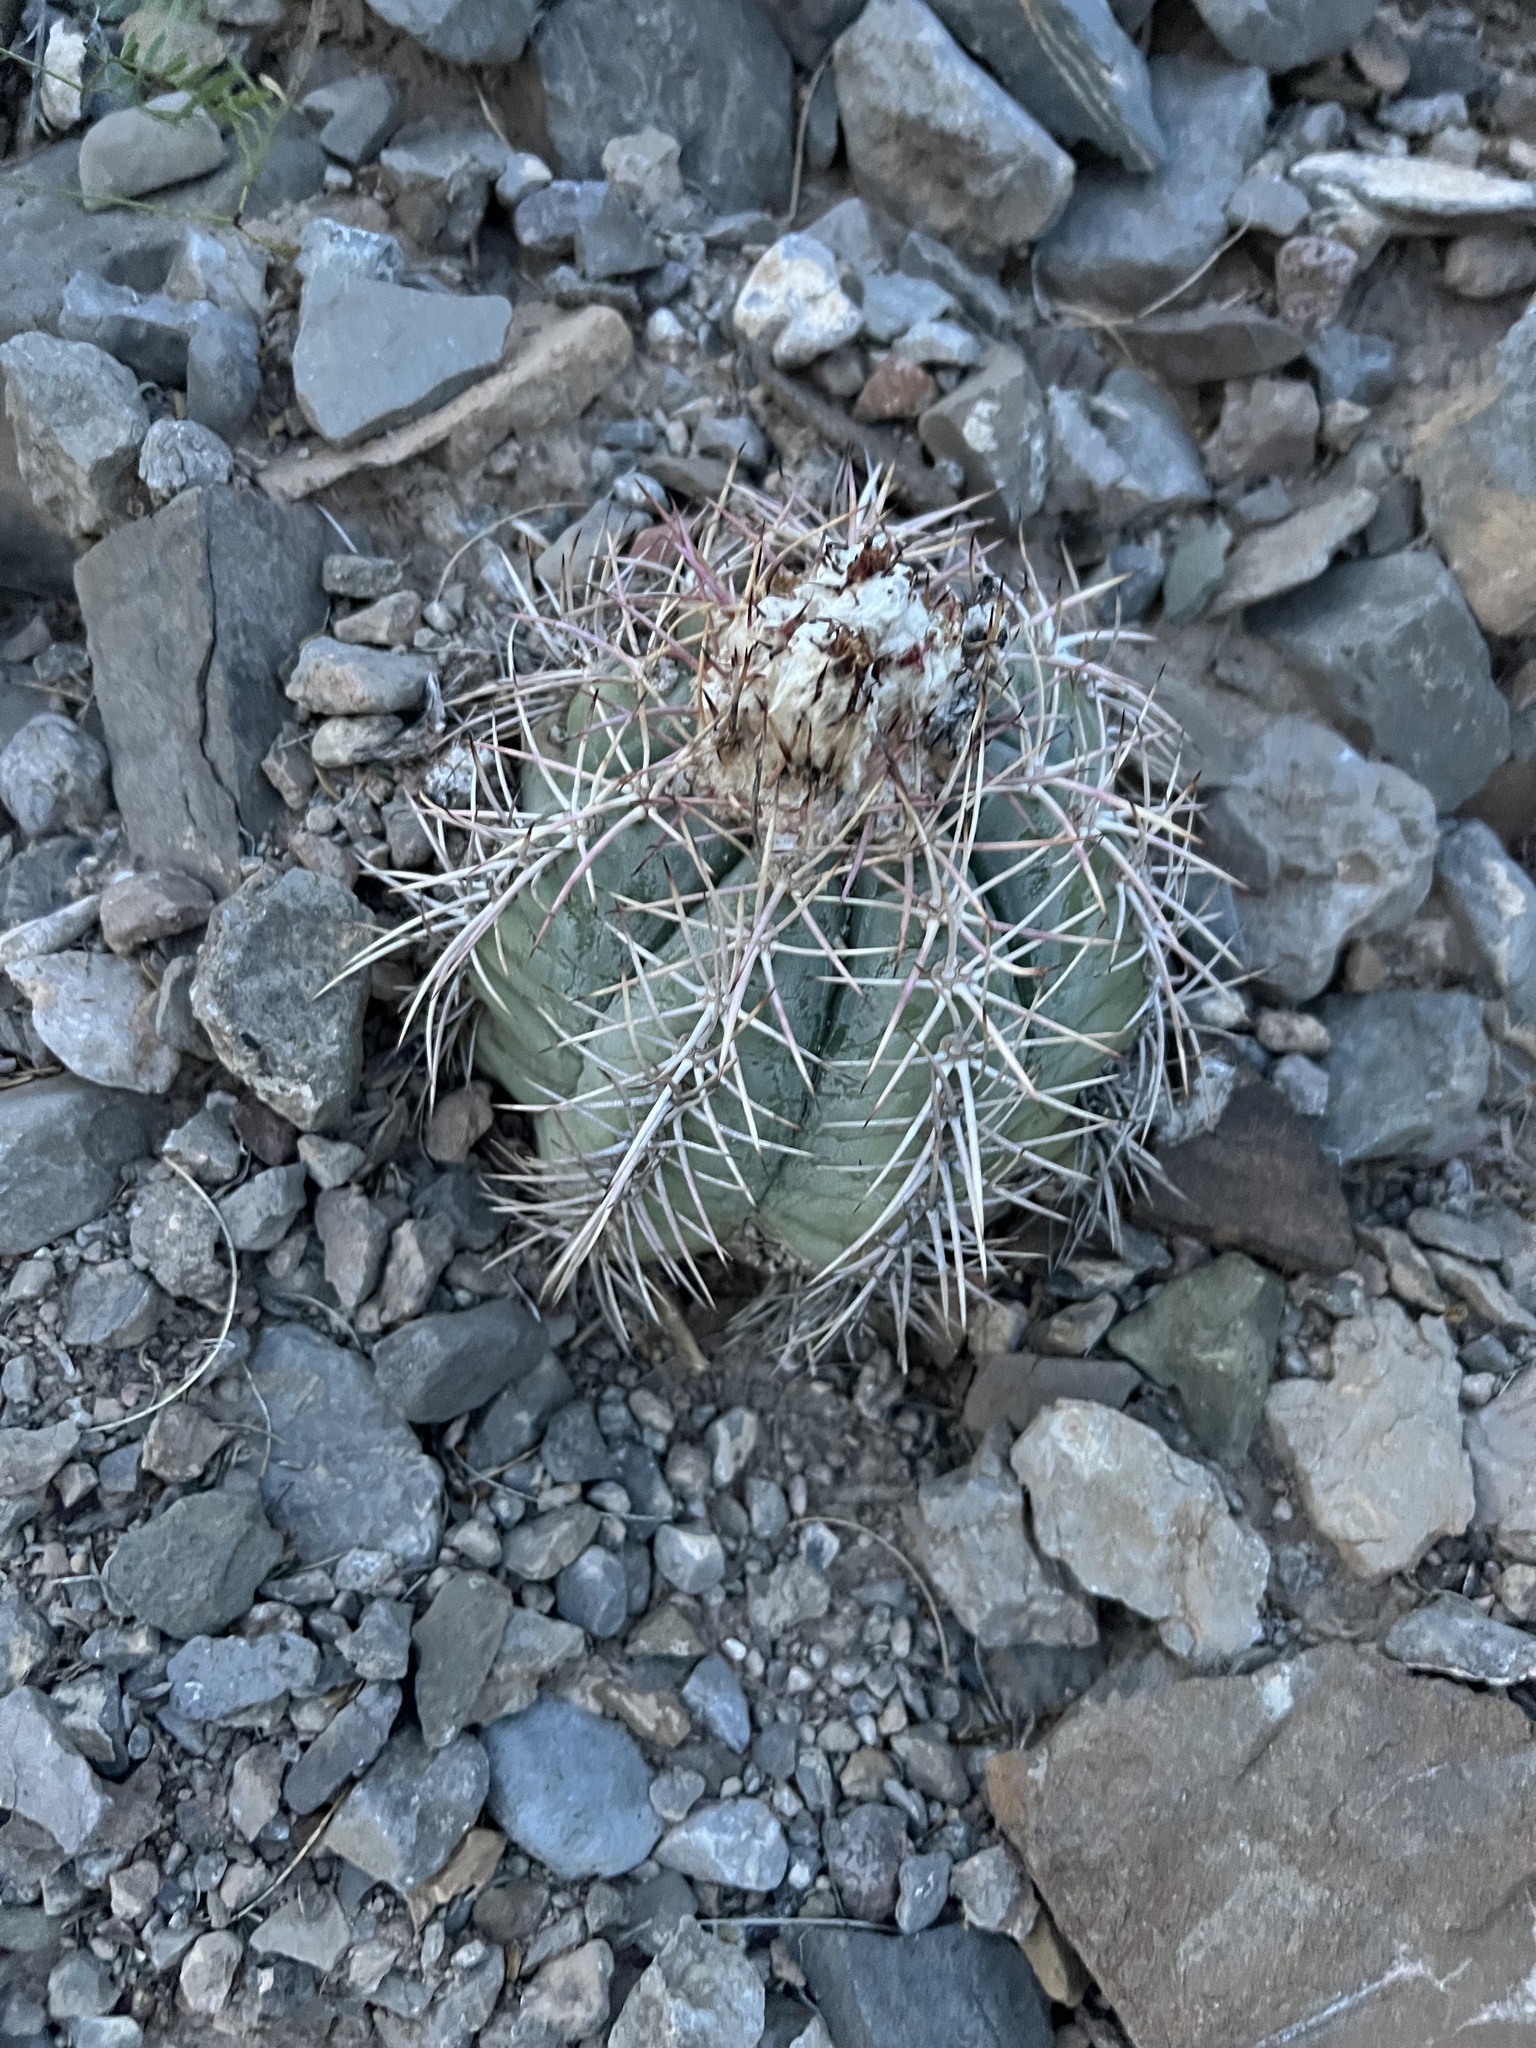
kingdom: Plantae
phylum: Tracheophyta
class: Magnoliopsida
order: Caryophyllales
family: Cactaceae
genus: Echinocactus
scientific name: Echinocactus horizonthalonius
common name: Devilshead
